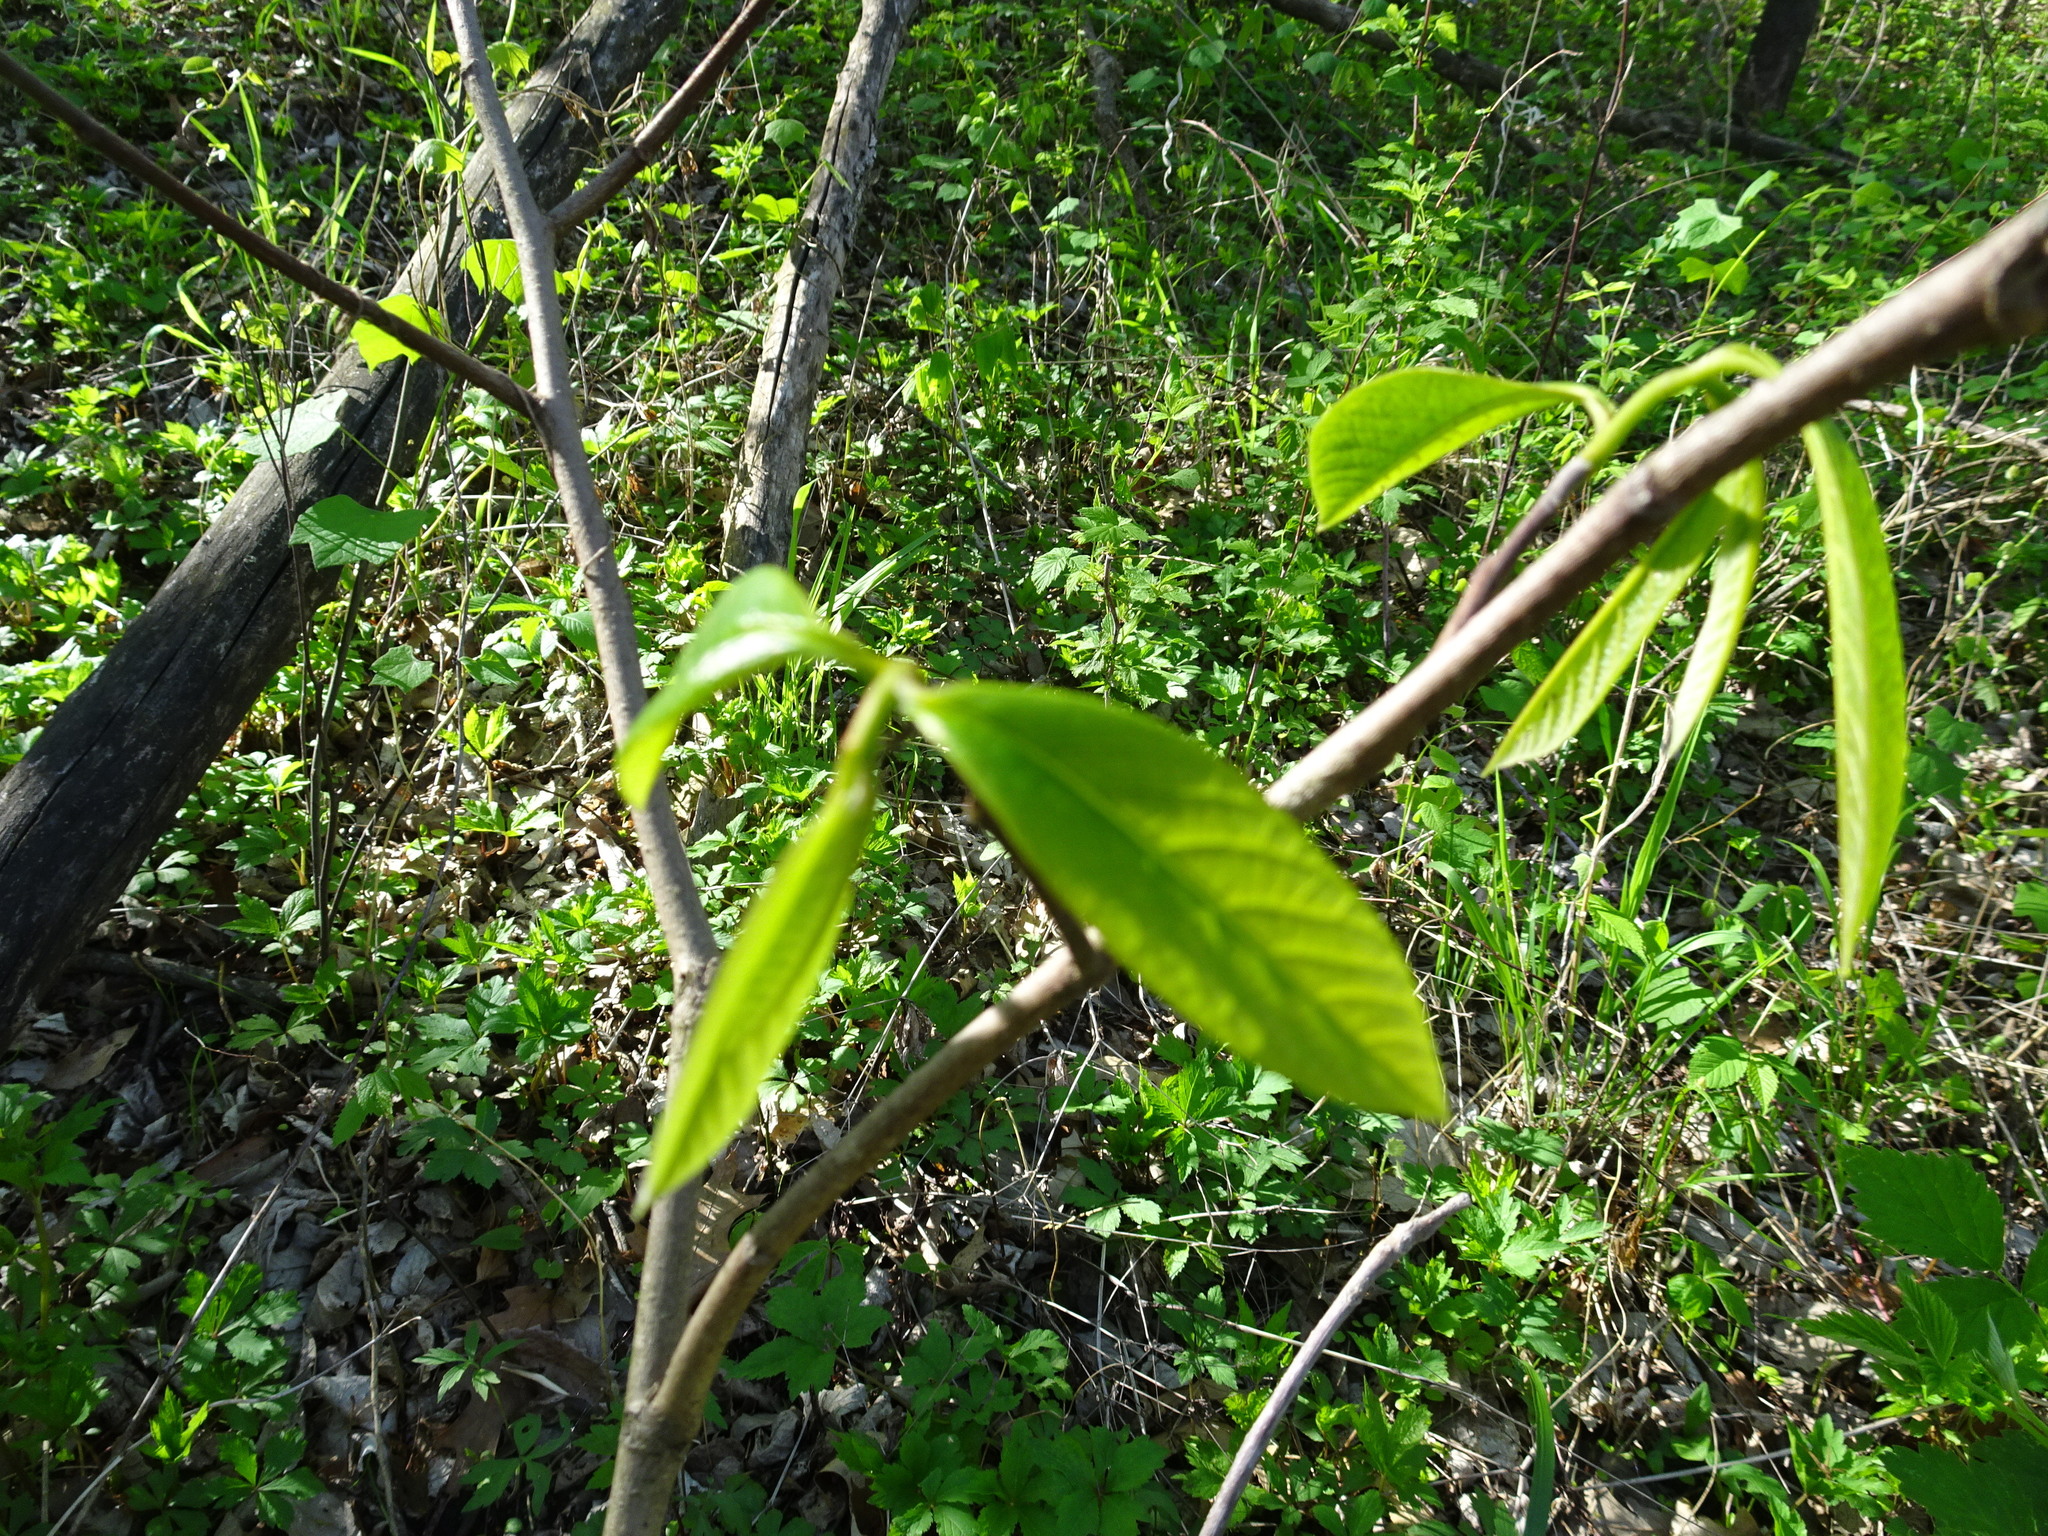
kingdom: Plantae
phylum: Tracheophyta
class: Magnoliopsida
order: Magnoliales
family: Annonaceae
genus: Asimina
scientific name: Asimina triloba
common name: Dog-banana
